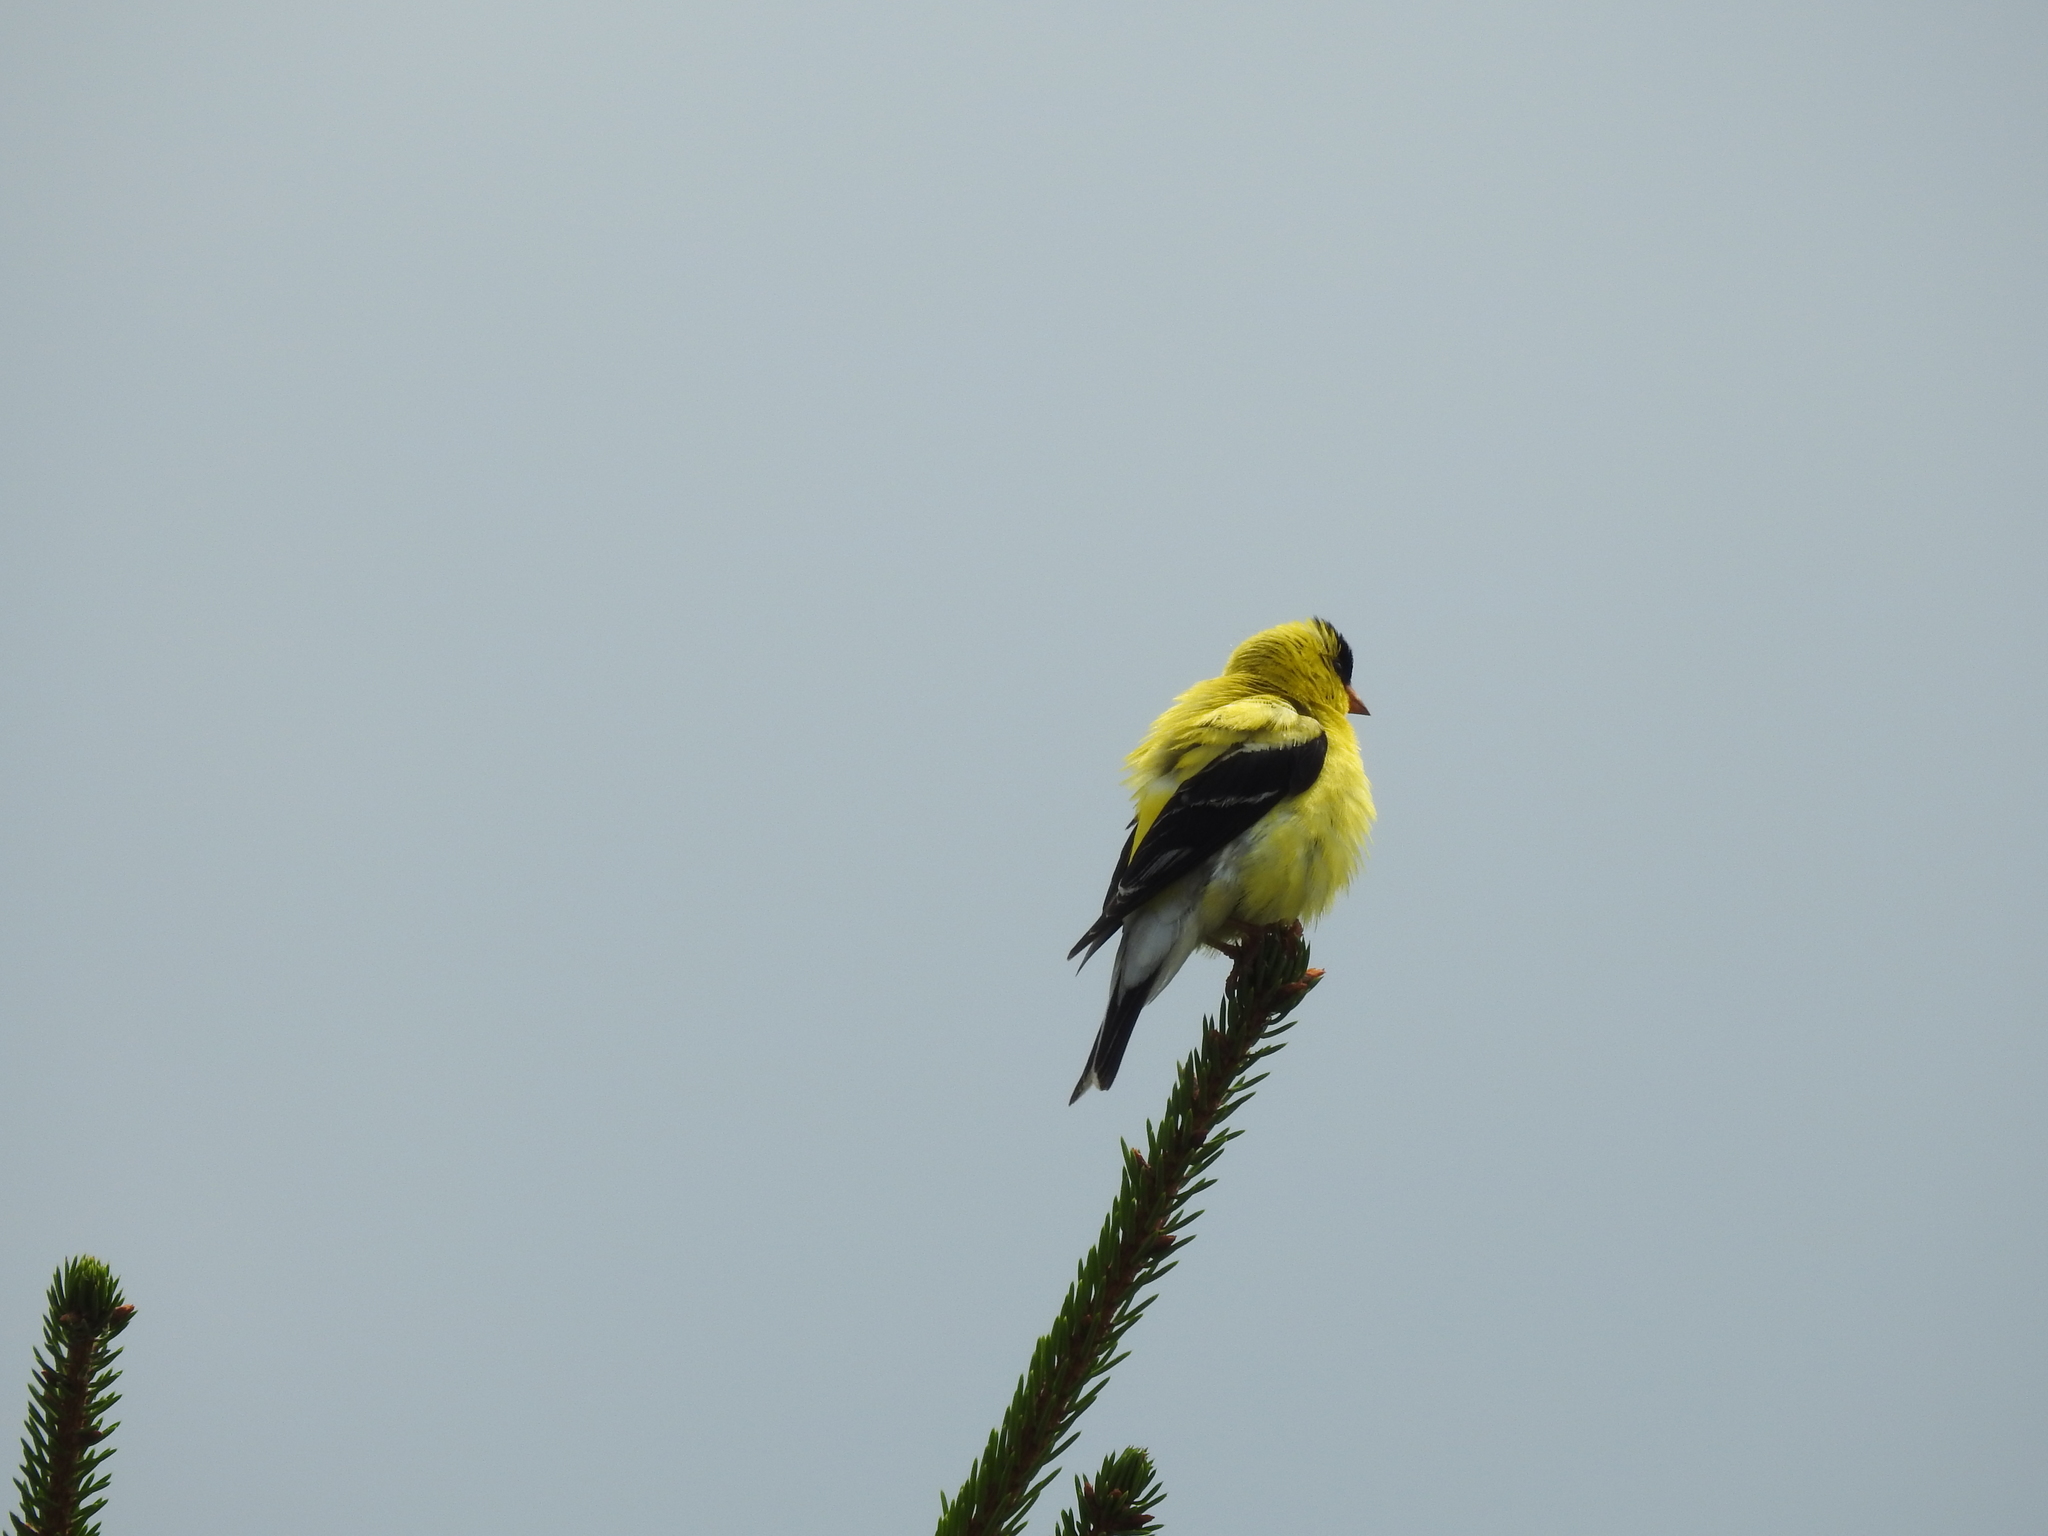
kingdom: Animalia
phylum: Chordata
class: Aves
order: Passeriformes
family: Fringillidae
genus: Spinus
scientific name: Spinus tristis
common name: American goldfinch
